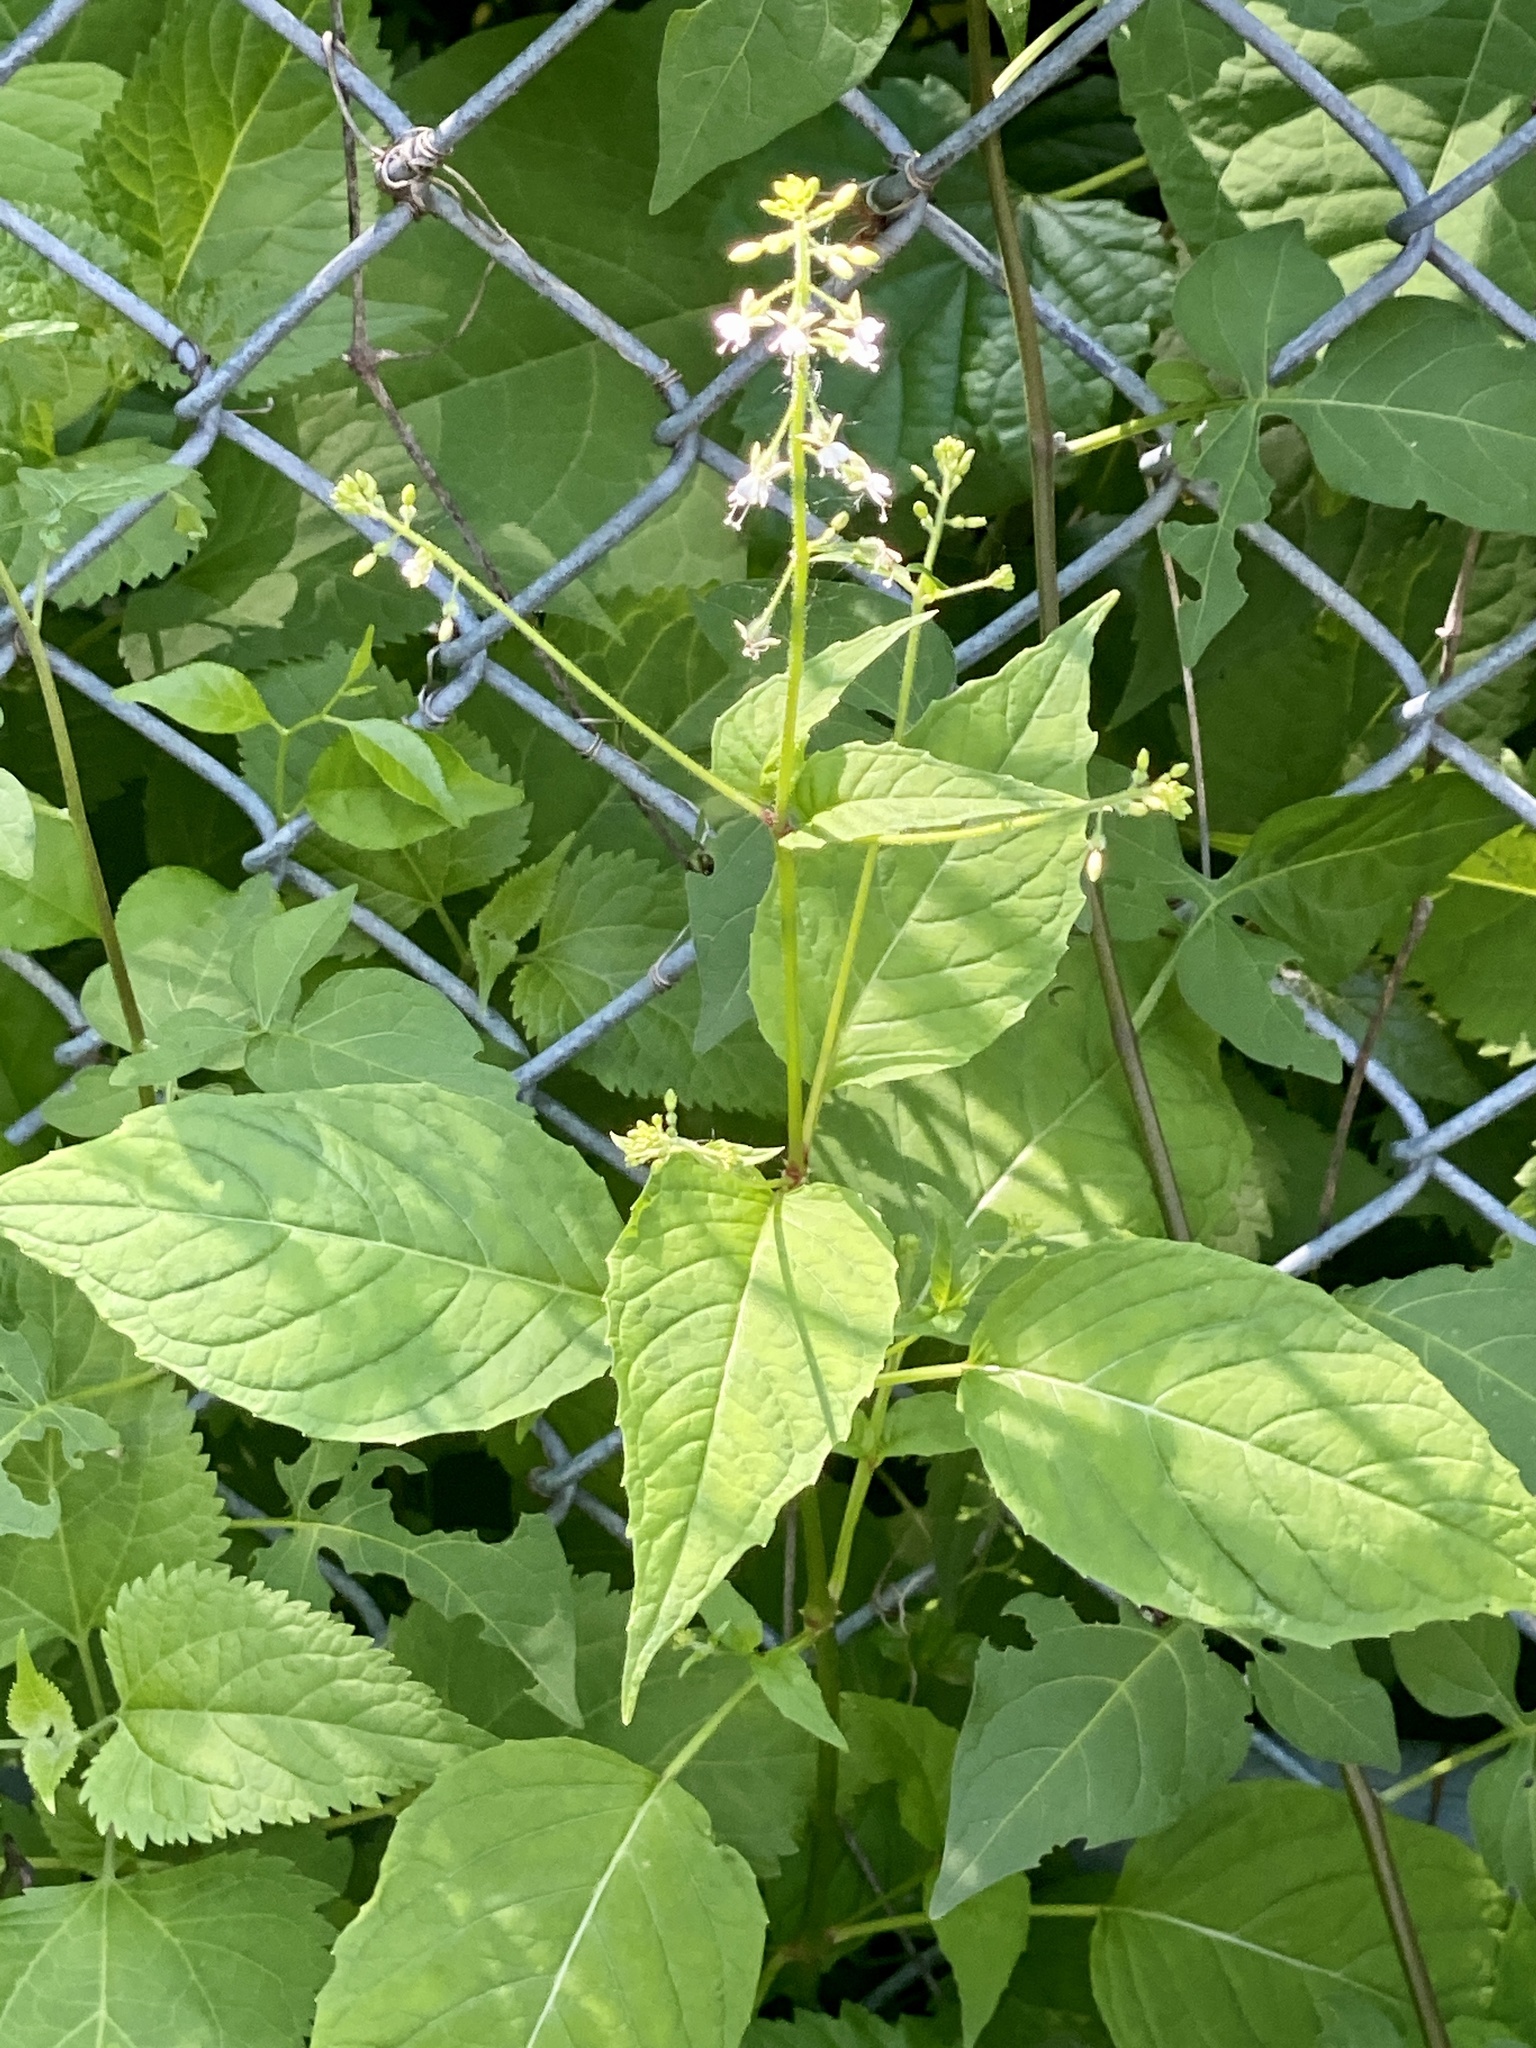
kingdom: Plantae
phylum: Tracheophyta
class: Magnoliopsida
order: Myrtales
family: Onagraceae
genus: Circaea
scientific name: Circaea canadensis
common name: Broad-leaved enchanter's nightshade
